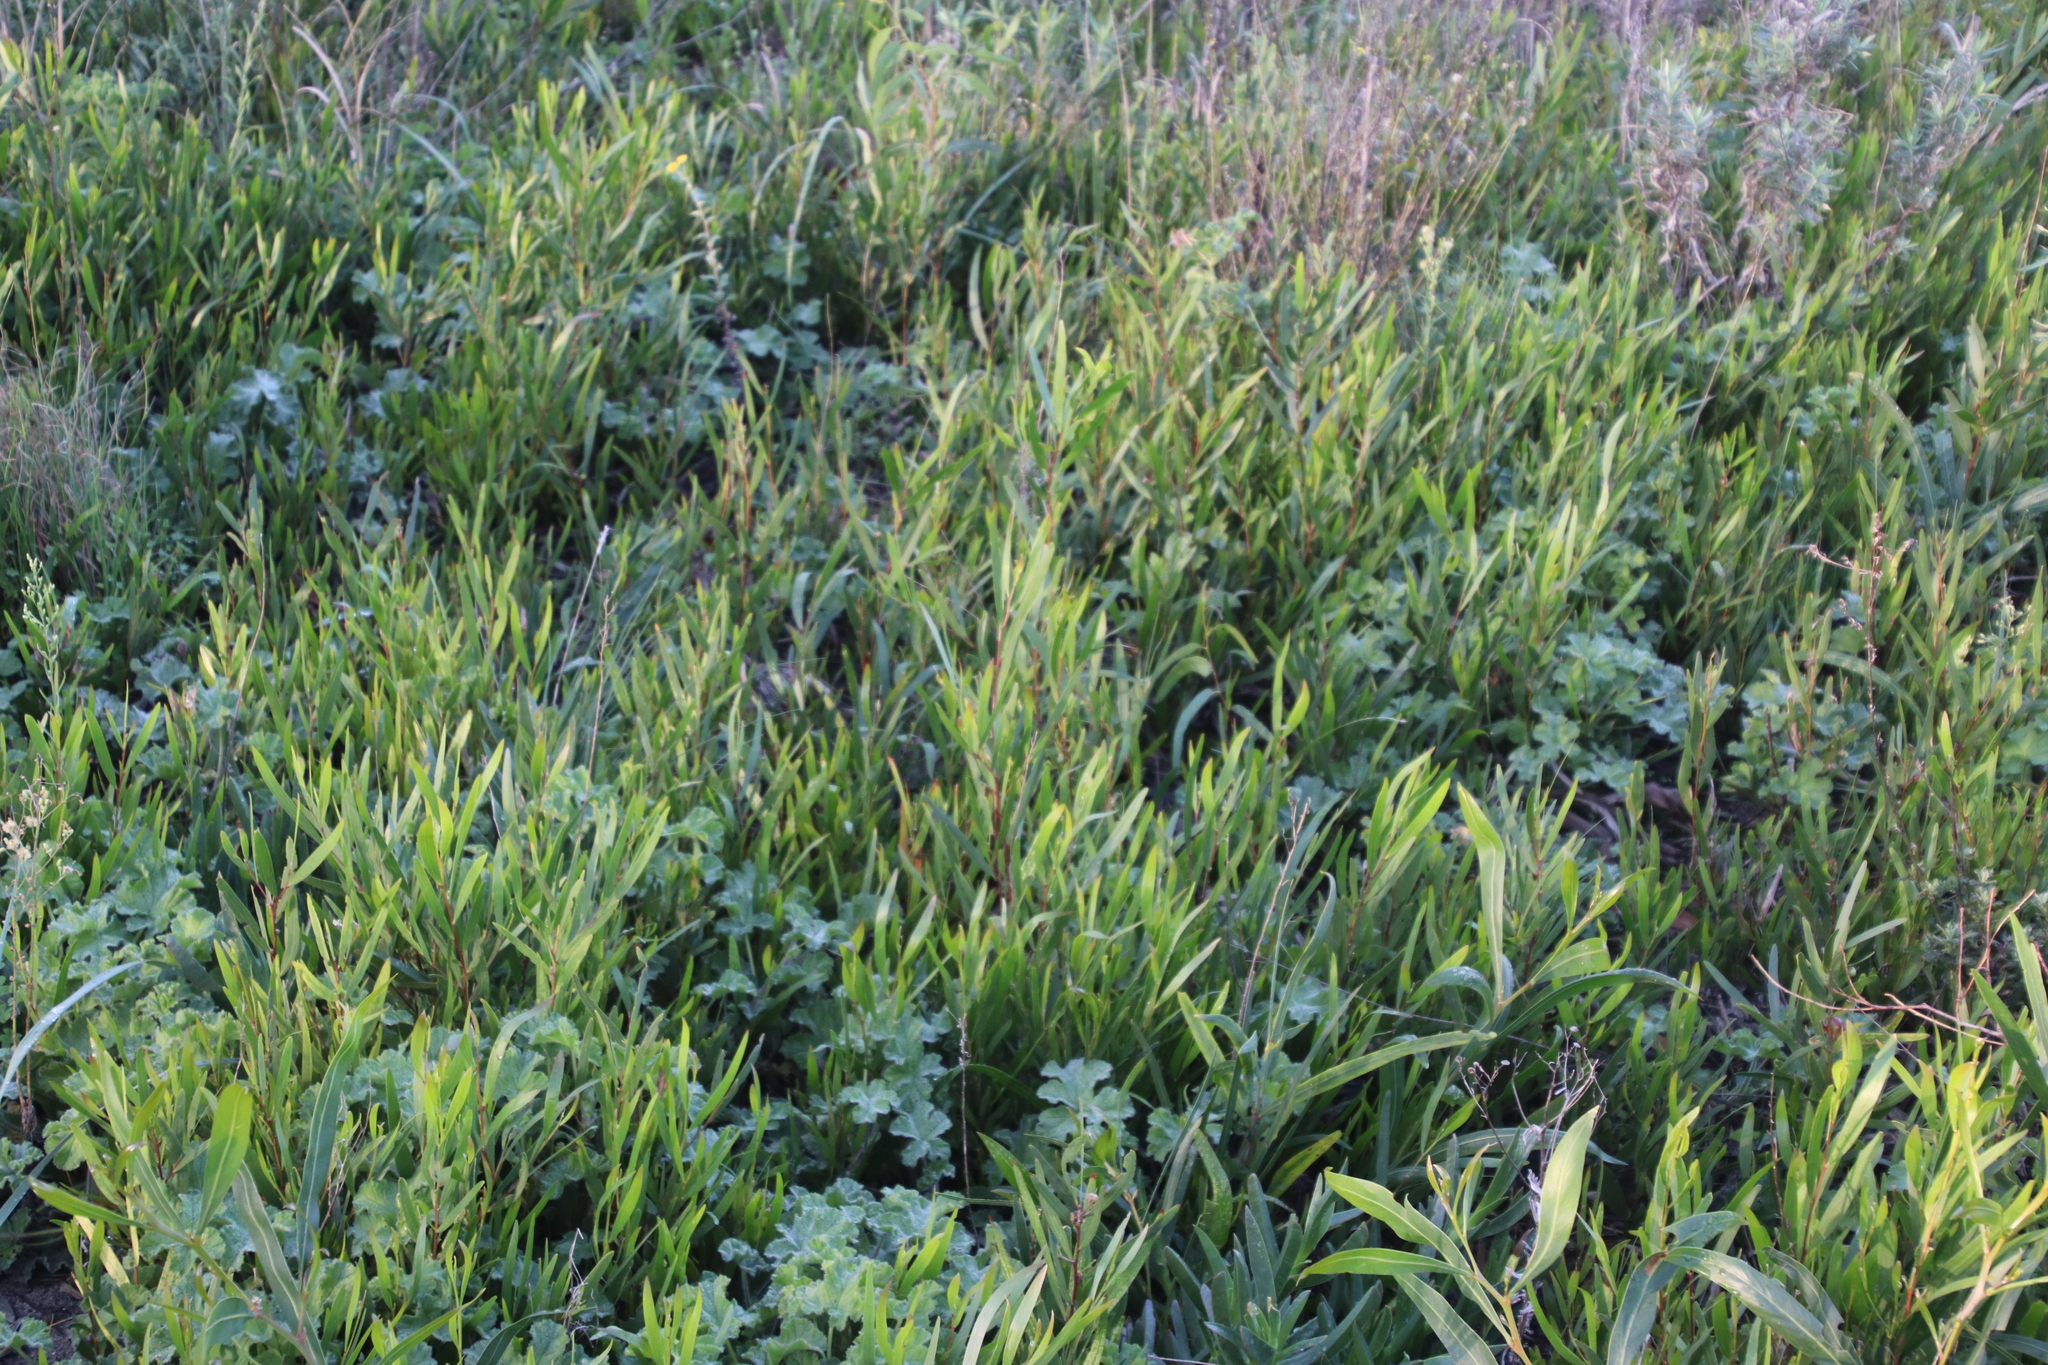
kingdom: Plantae
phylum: Tracheophyta
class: Magnoliopsida
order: Fabales
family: Fabaceae
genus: Acacia
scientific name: Acacia longifolia
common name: Sydney golden wattle
